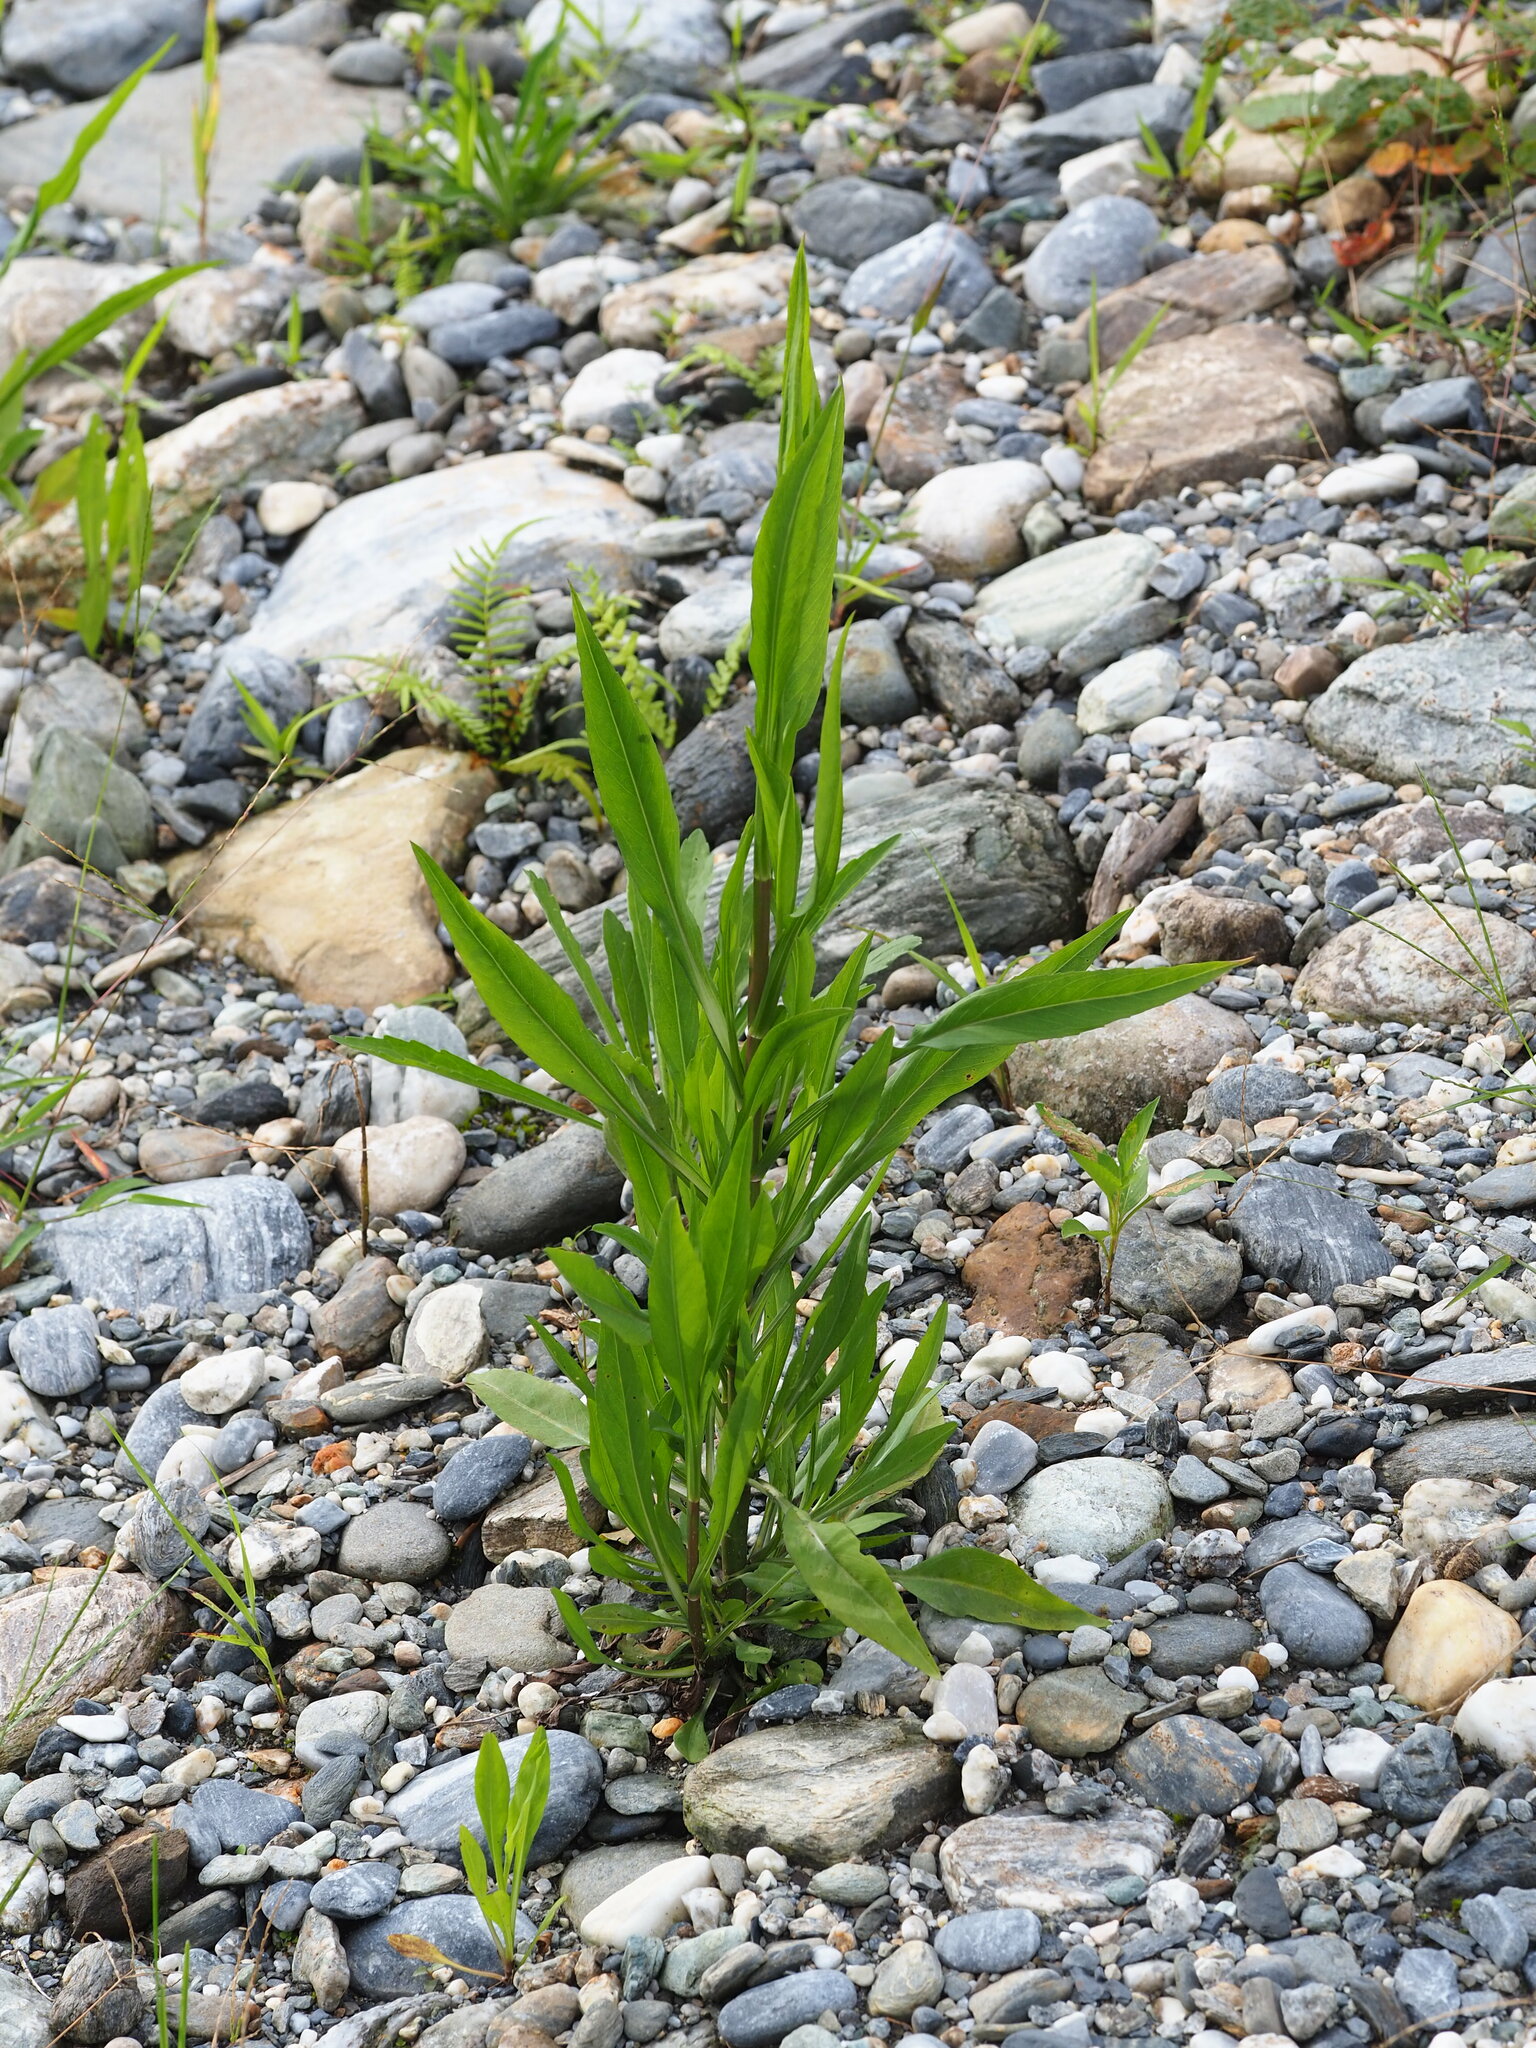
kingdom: Plantae
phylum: Tracheophyta
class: Magnoliopsida
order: Asterales
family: Asteraceae
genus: Symphyotrichum
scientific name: Symphyotrichum subulatum
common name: Annual saltmarsh aster
